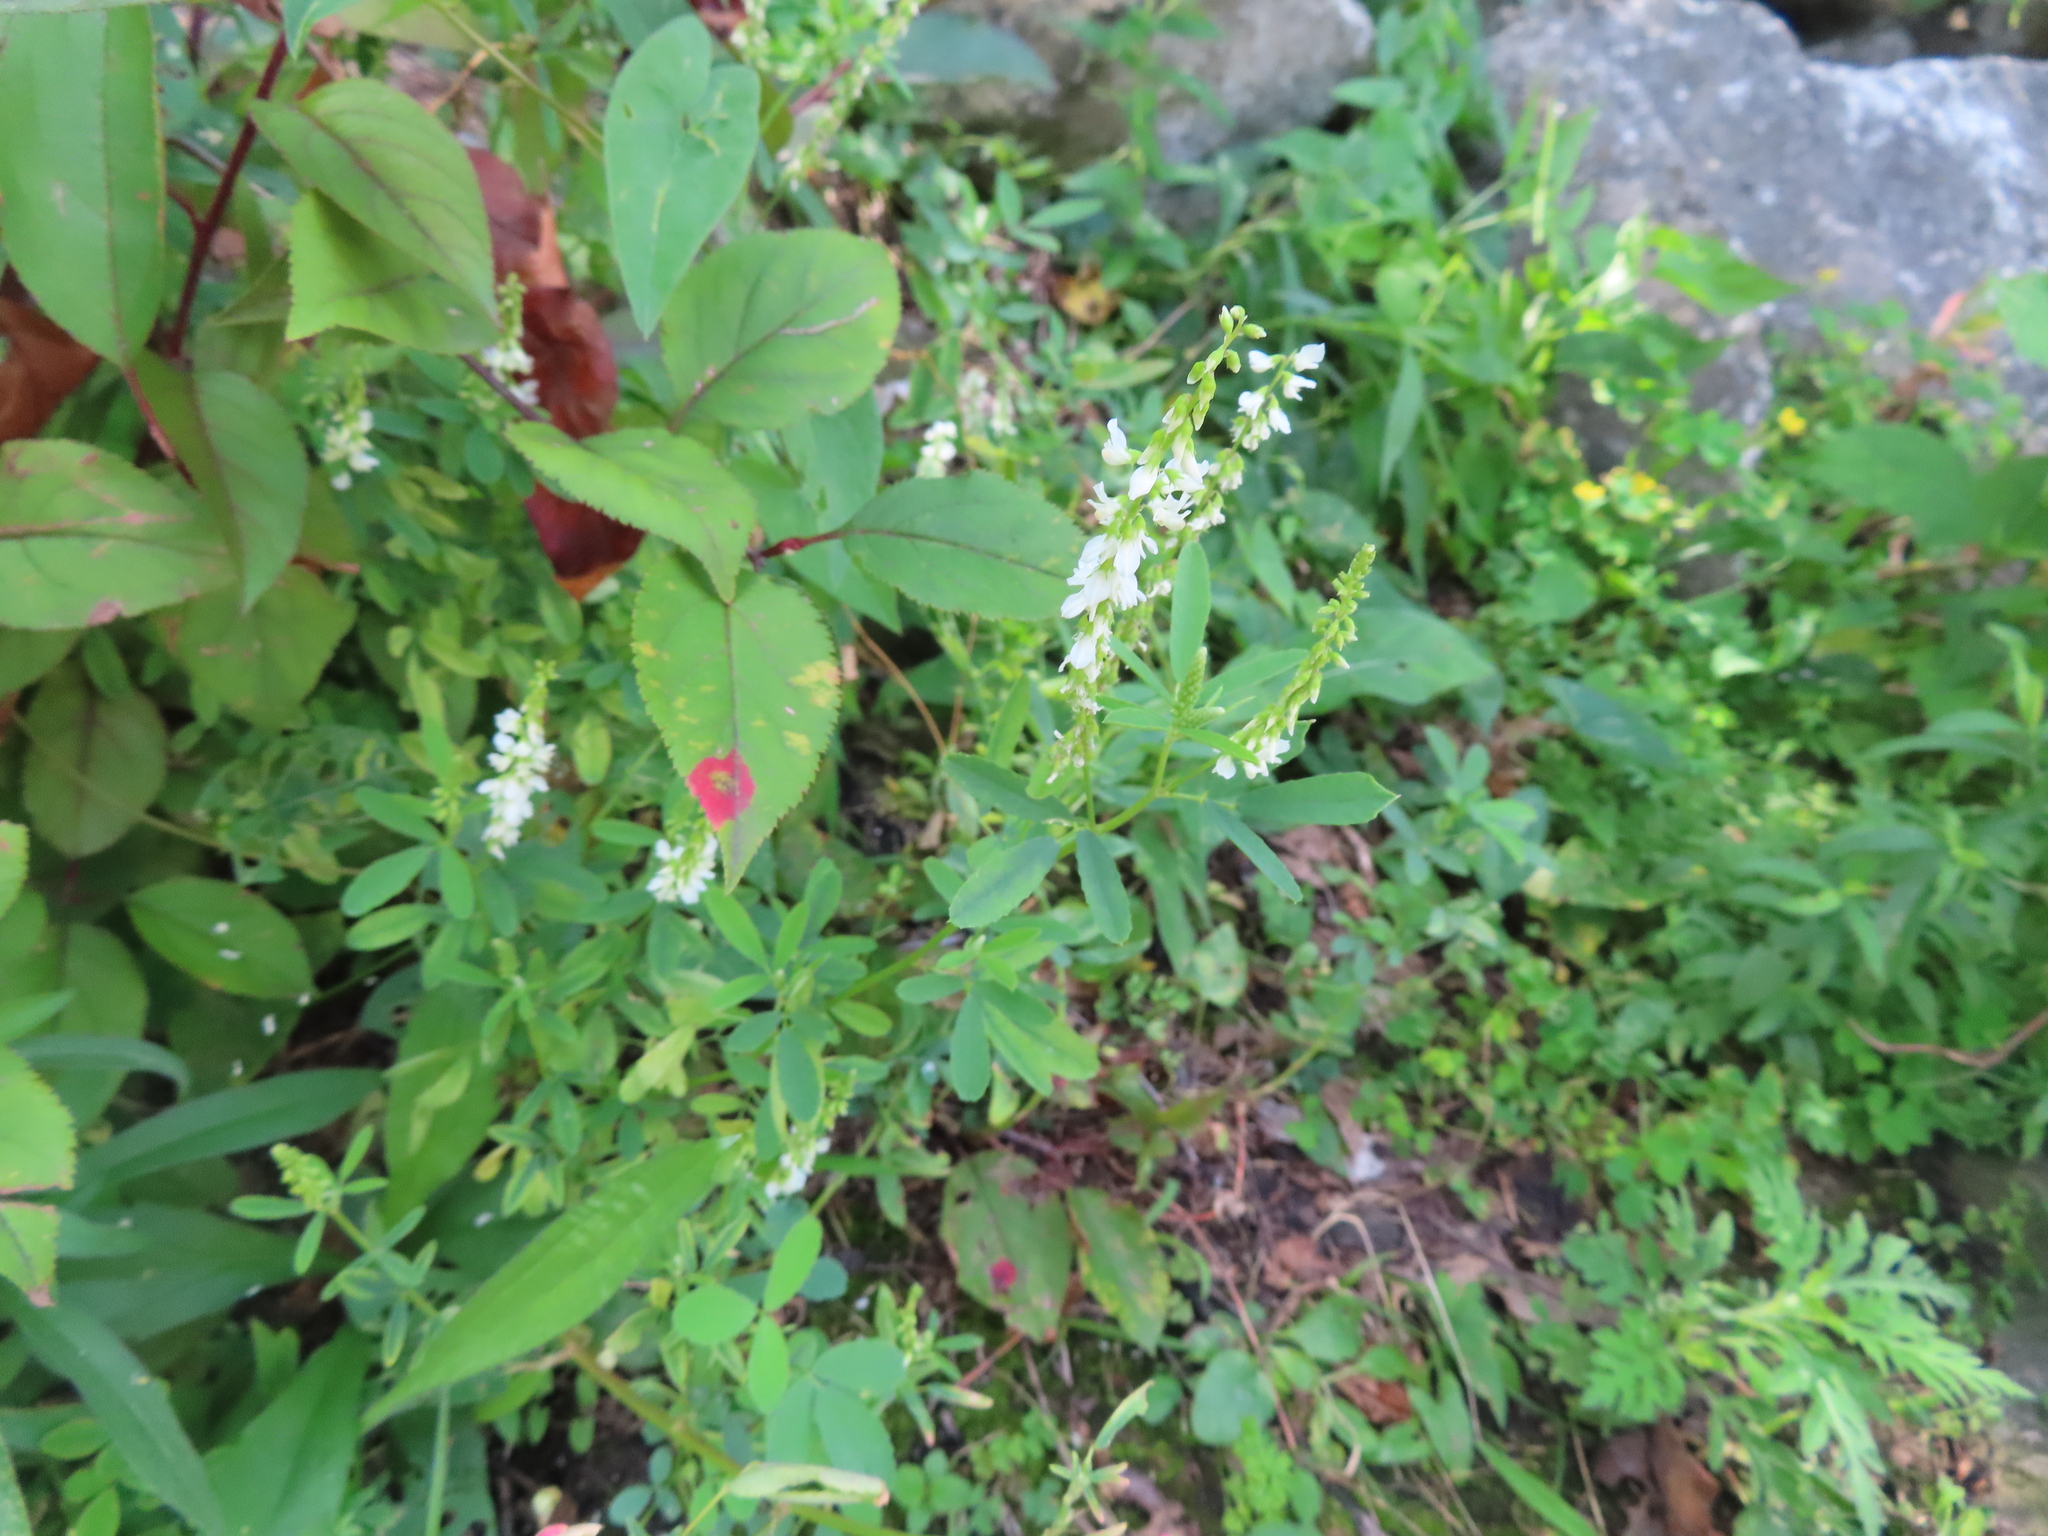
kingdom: Plantae
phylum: Tracheophyta
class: Magnoliopsida
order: Fabales
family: Fabaceae
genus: Melilotus
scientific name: Melilotus albus
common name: White melilot
